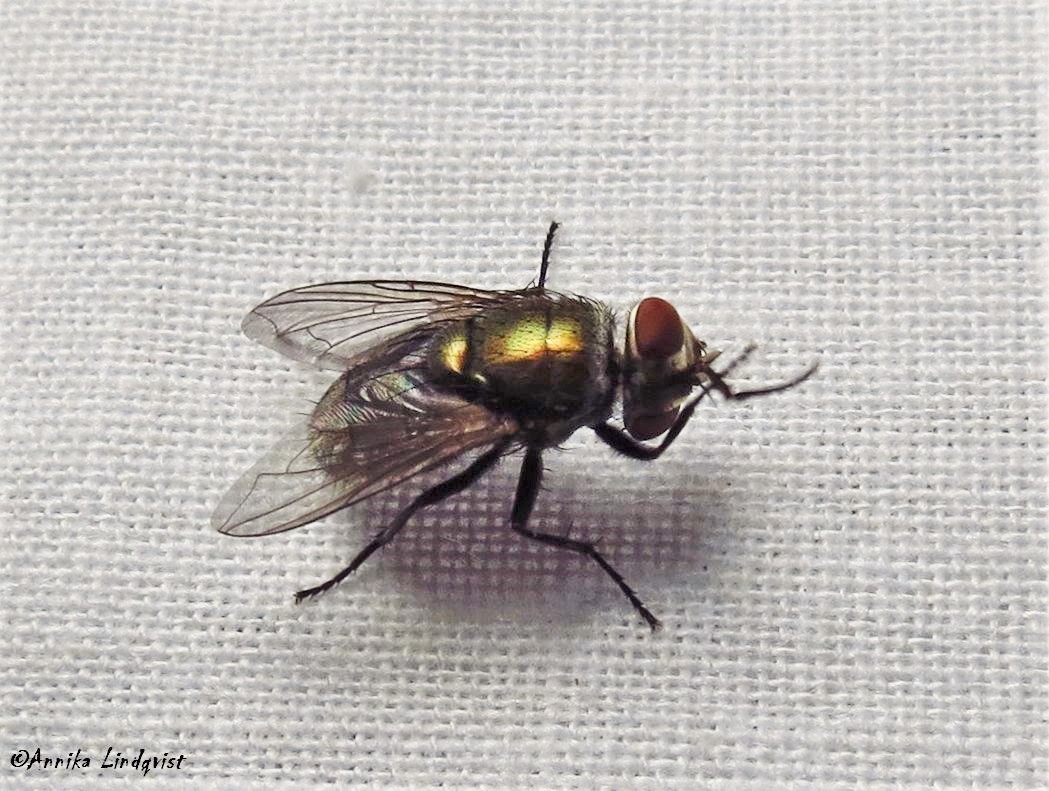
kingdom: Animalia
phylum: Arthropoda
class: Insecta
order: Diptera
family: Calliphoridae
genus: Lucilia
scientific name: Lucilia cuprina
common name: Sheep blow fly
